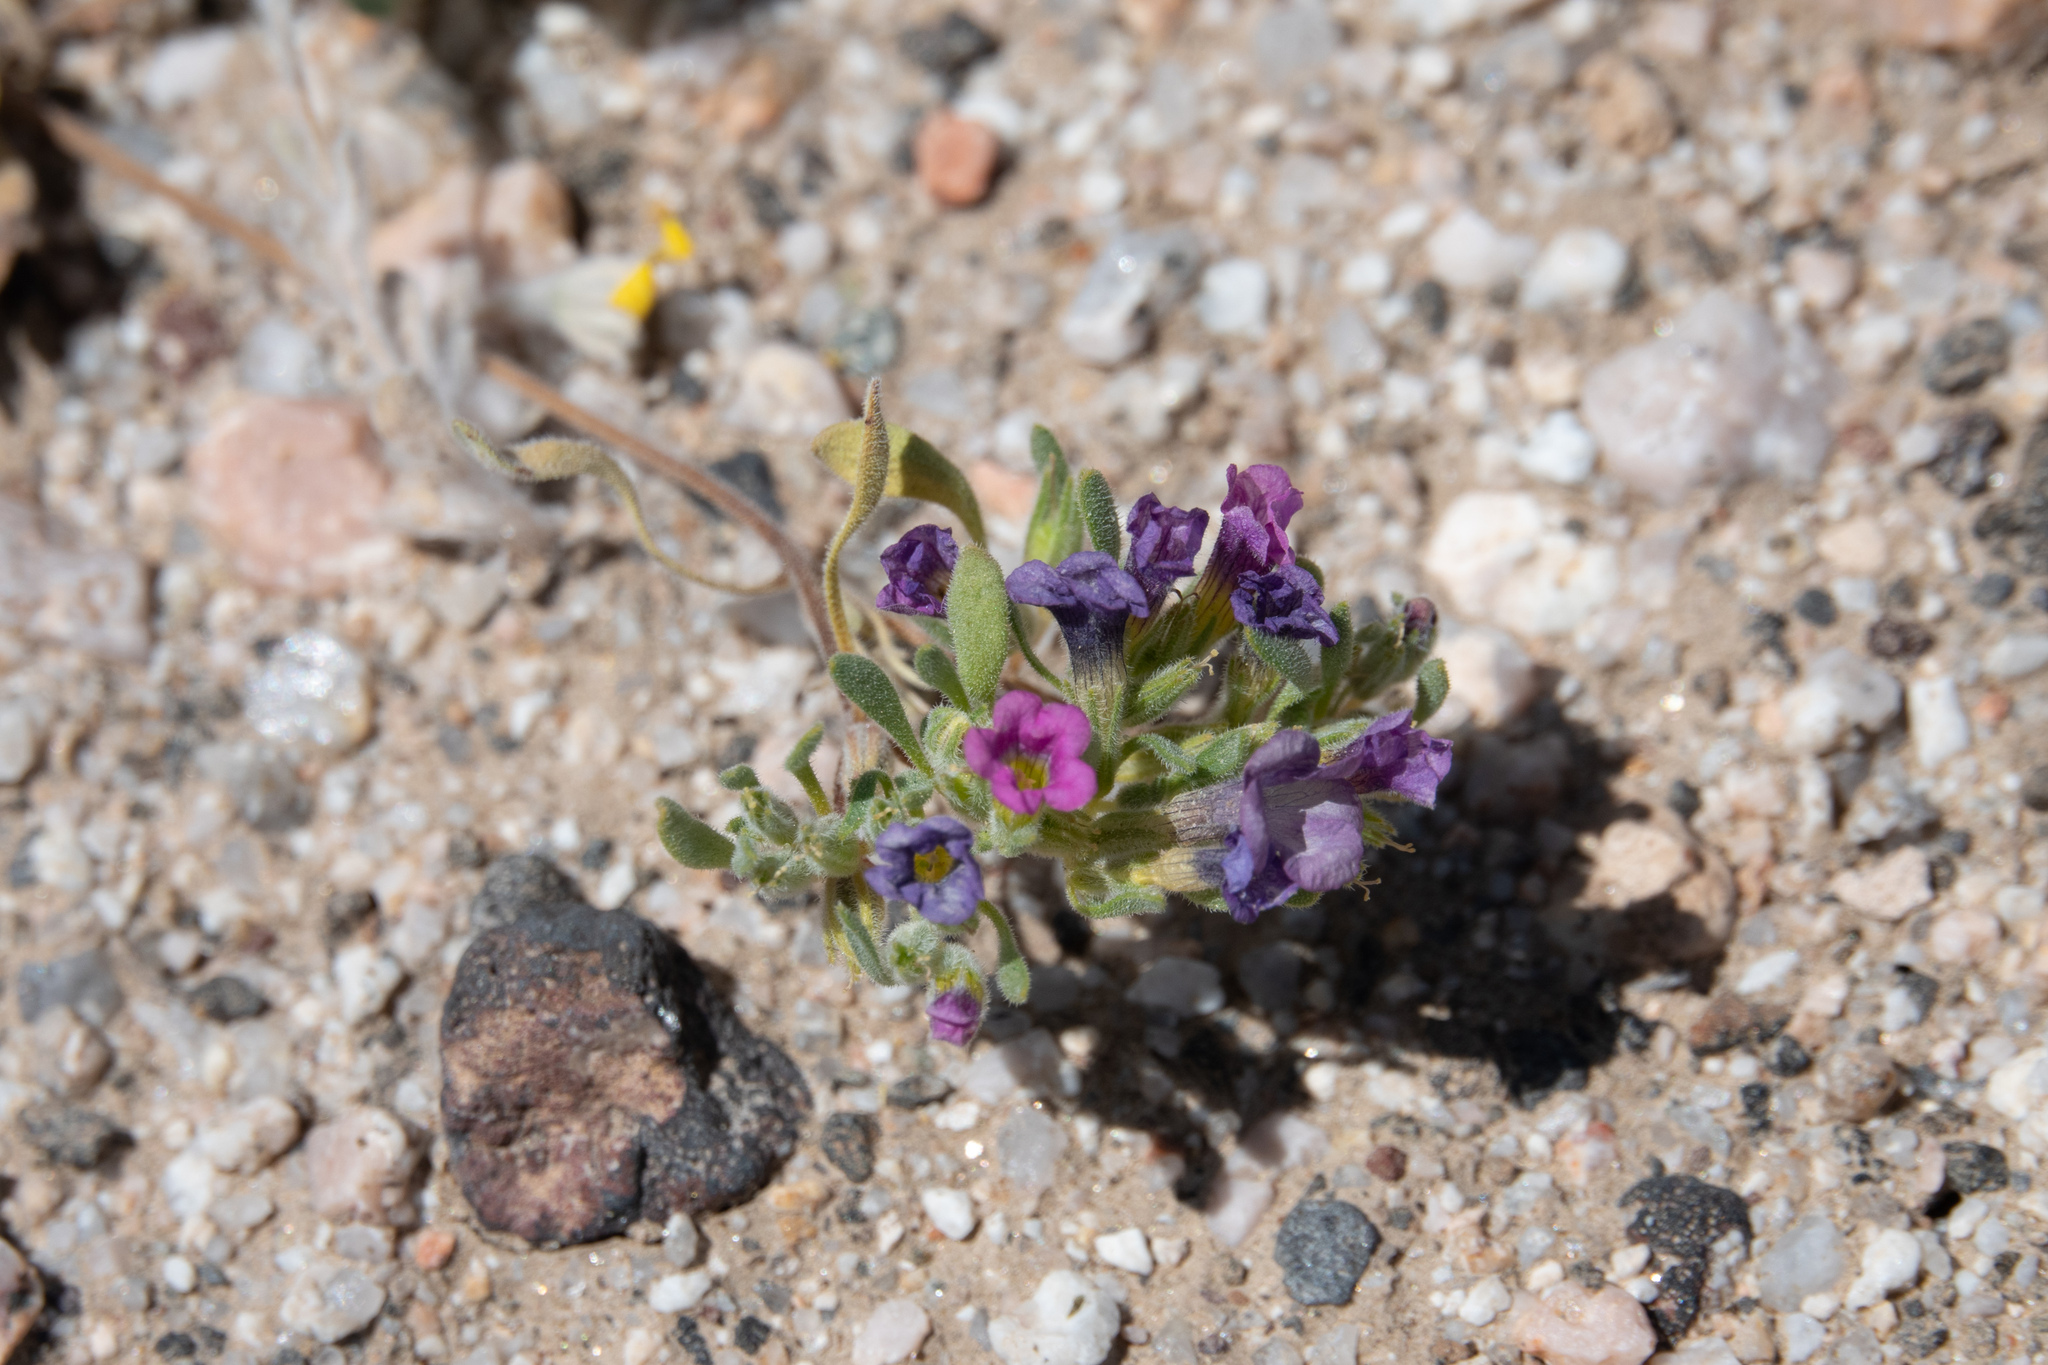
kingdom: Plantae
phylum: Tracheophyta
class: Magnoliopsida
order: Boraginales
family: Namaceae
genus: Nama
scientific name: Nama demissa
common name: Leafy nama
